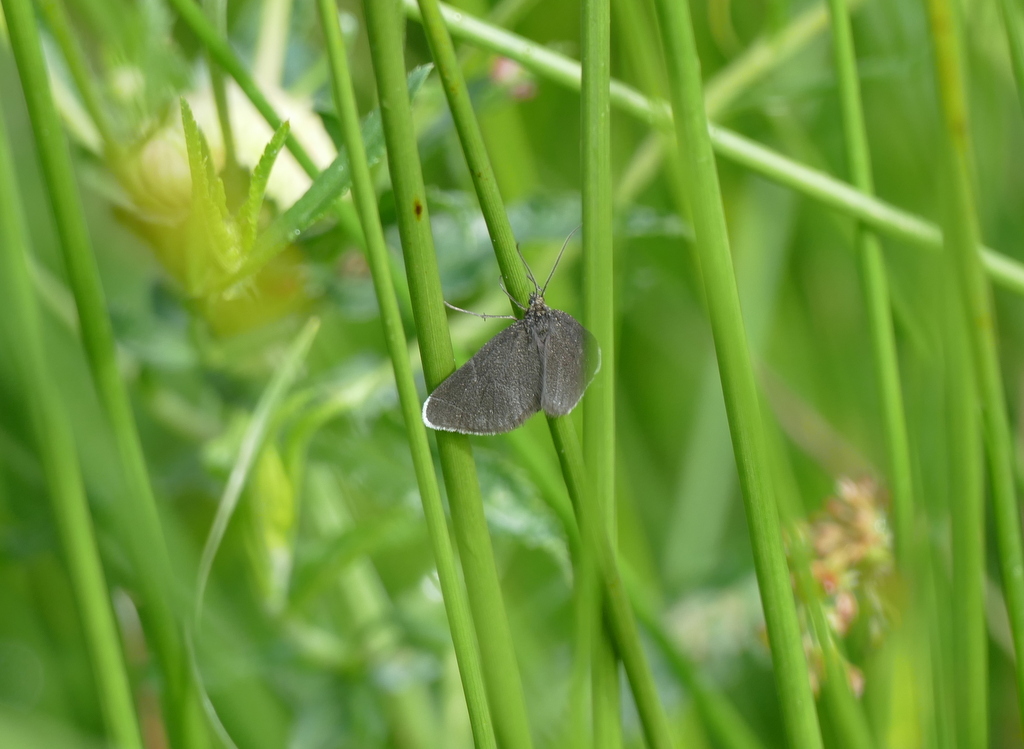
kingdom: Animalia
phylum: Arthropoda
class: Insecta
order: Lepidoptera
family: Geometridae
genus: Odezia
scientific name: Odezia atrata
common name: Chimney sweeper
